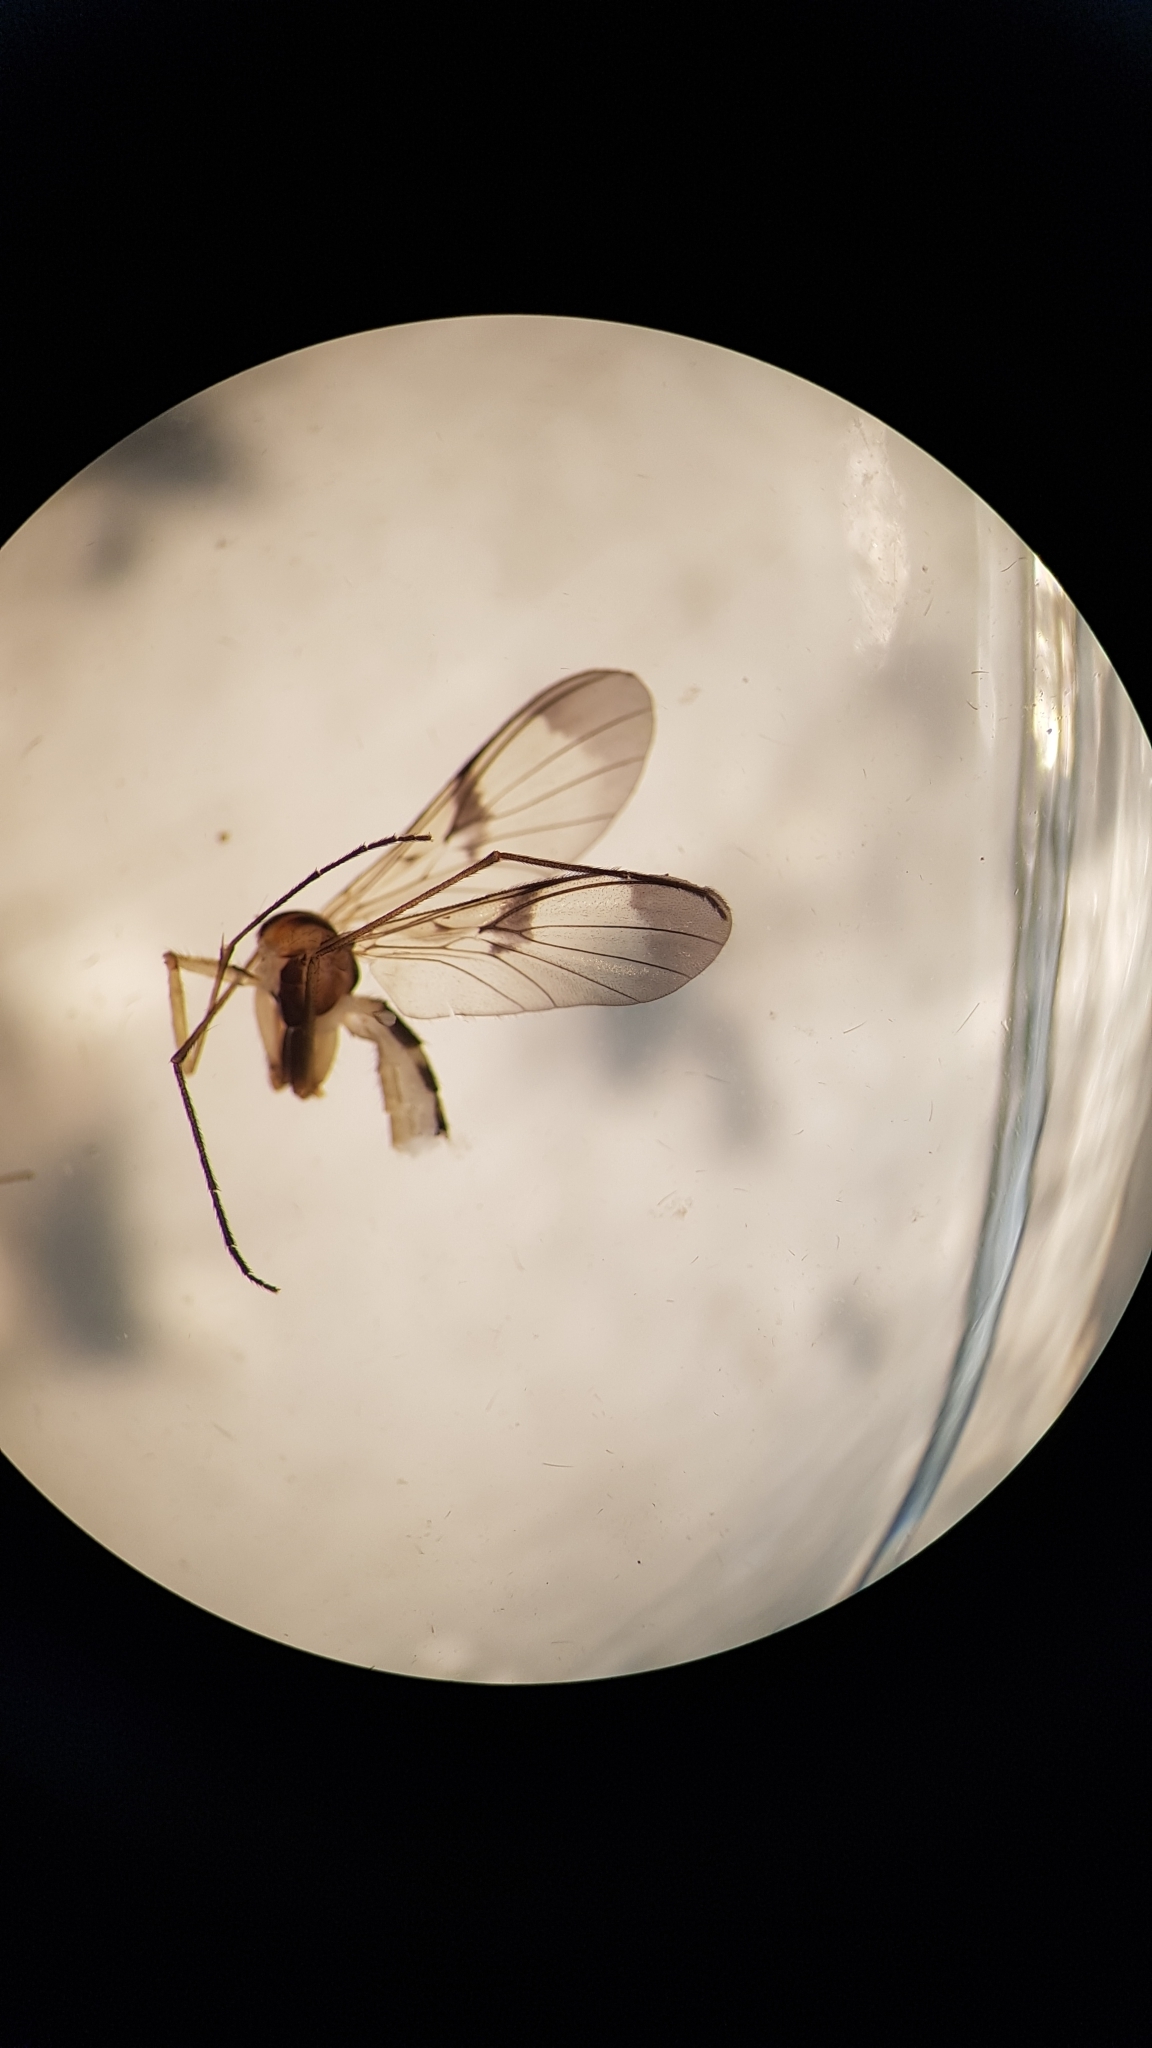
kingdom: Animalia
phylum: Arthropoda
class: Insecta
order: Diptera
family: Keroplatidae
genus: Macrocera
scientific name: Macrocera scoparia
